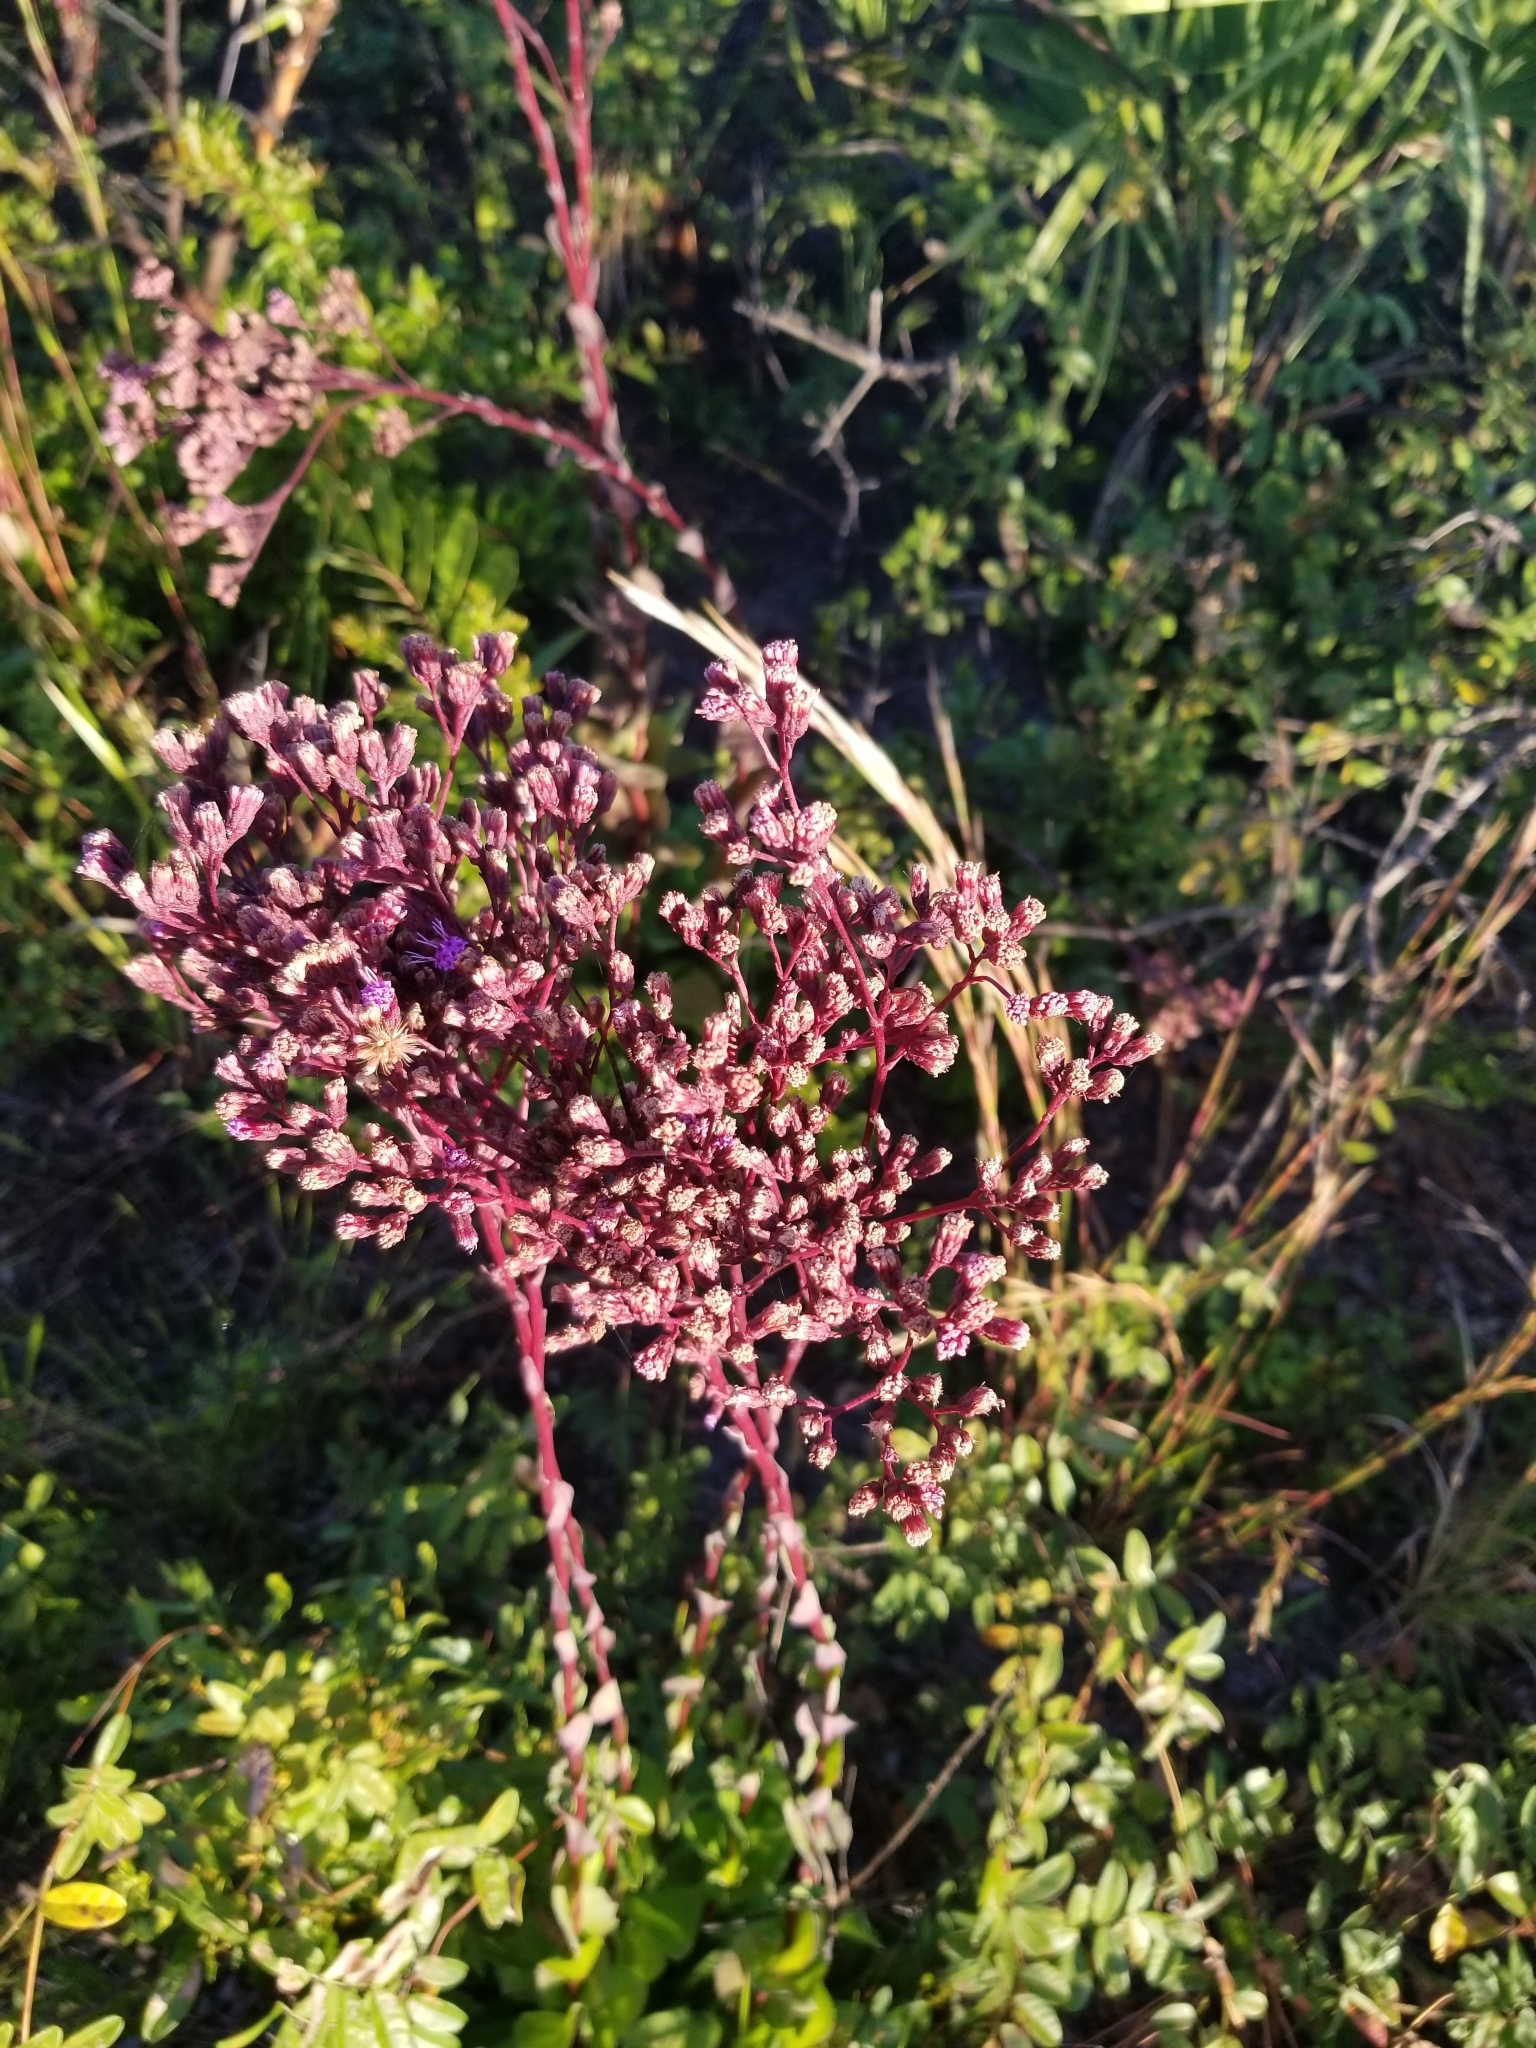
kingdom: Plantae
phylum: Tracheophyta
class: Magnoliopsida
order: Asterales
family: Asteraceae
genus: Carphephorus
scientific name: Carphephorus odoratissimus
